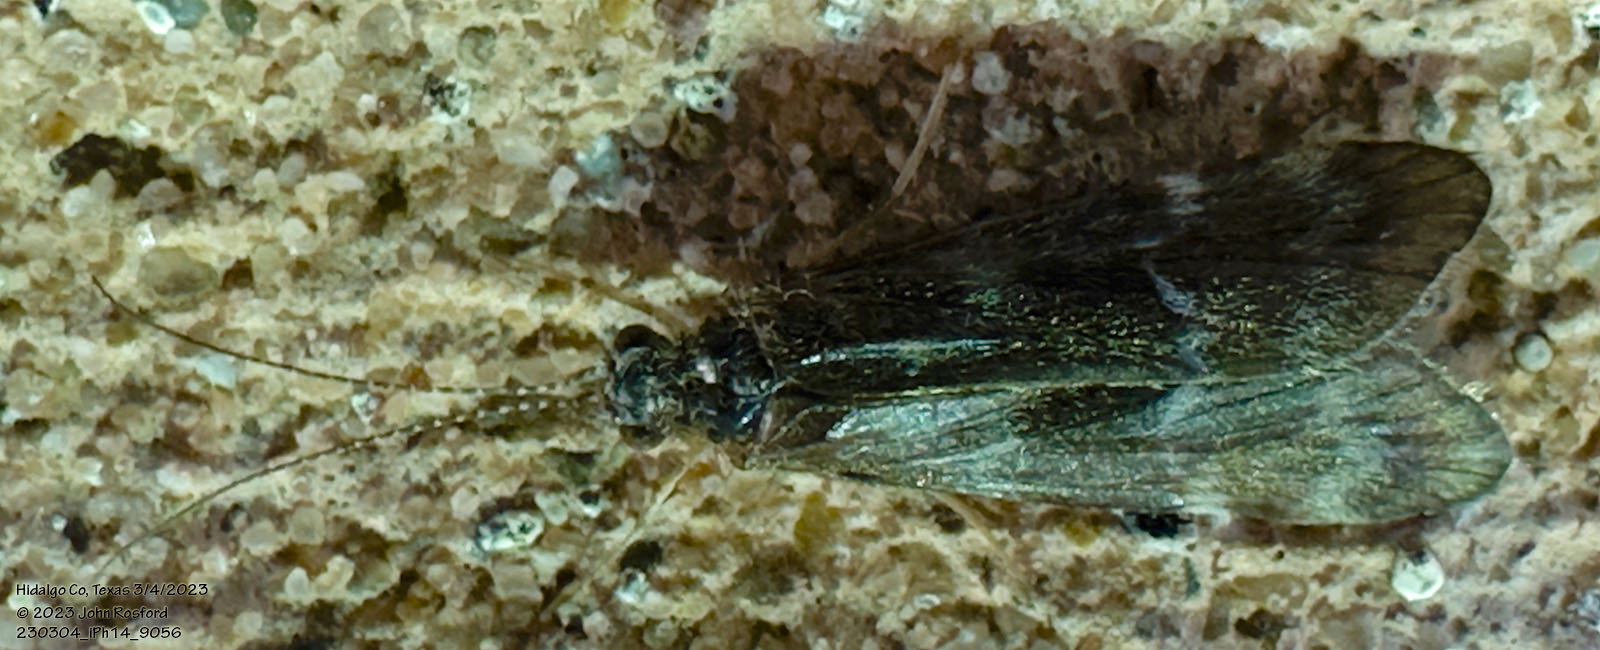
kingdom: Animalia
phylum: Arthropoda
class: Insecta
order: Trichoptera
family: Hydropsychidae
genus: Smicridea
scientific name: Smicridea fasciatella
